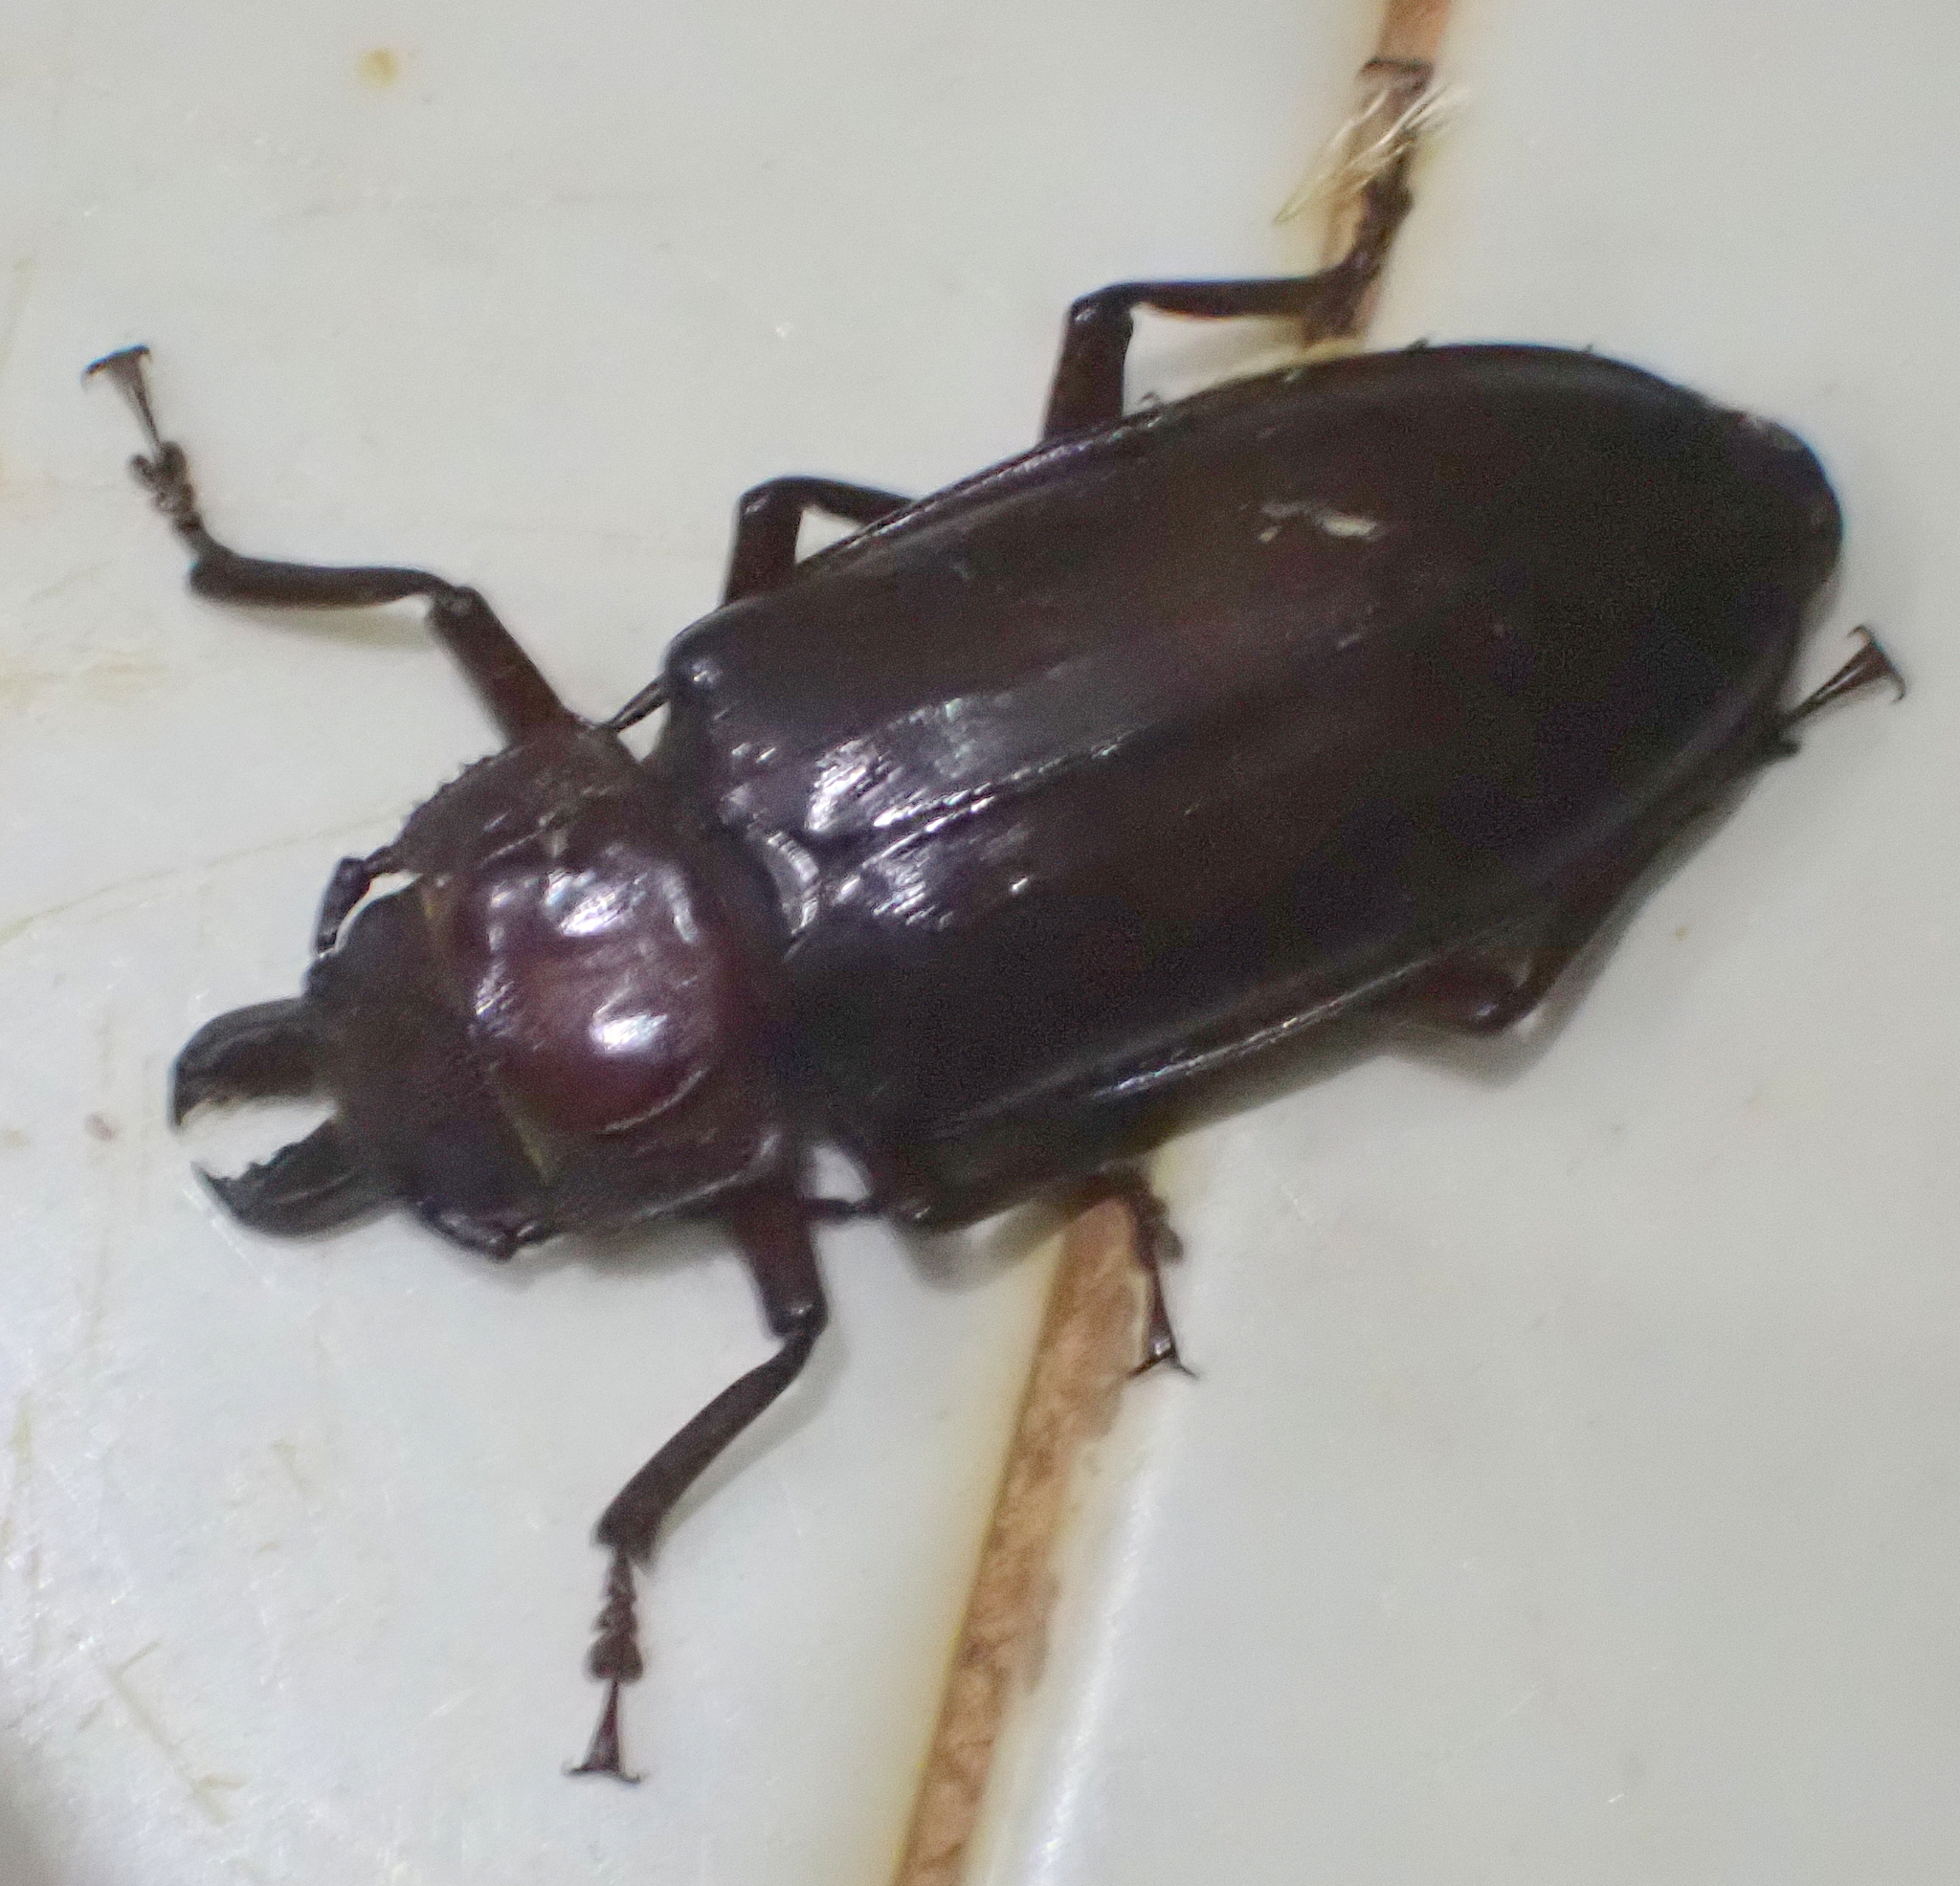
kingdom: Animalia
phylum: Arthropoda
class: Insecta
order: Coleoptera
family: Cerambycidae
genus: Mallodon
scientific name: Mallodon downesii
